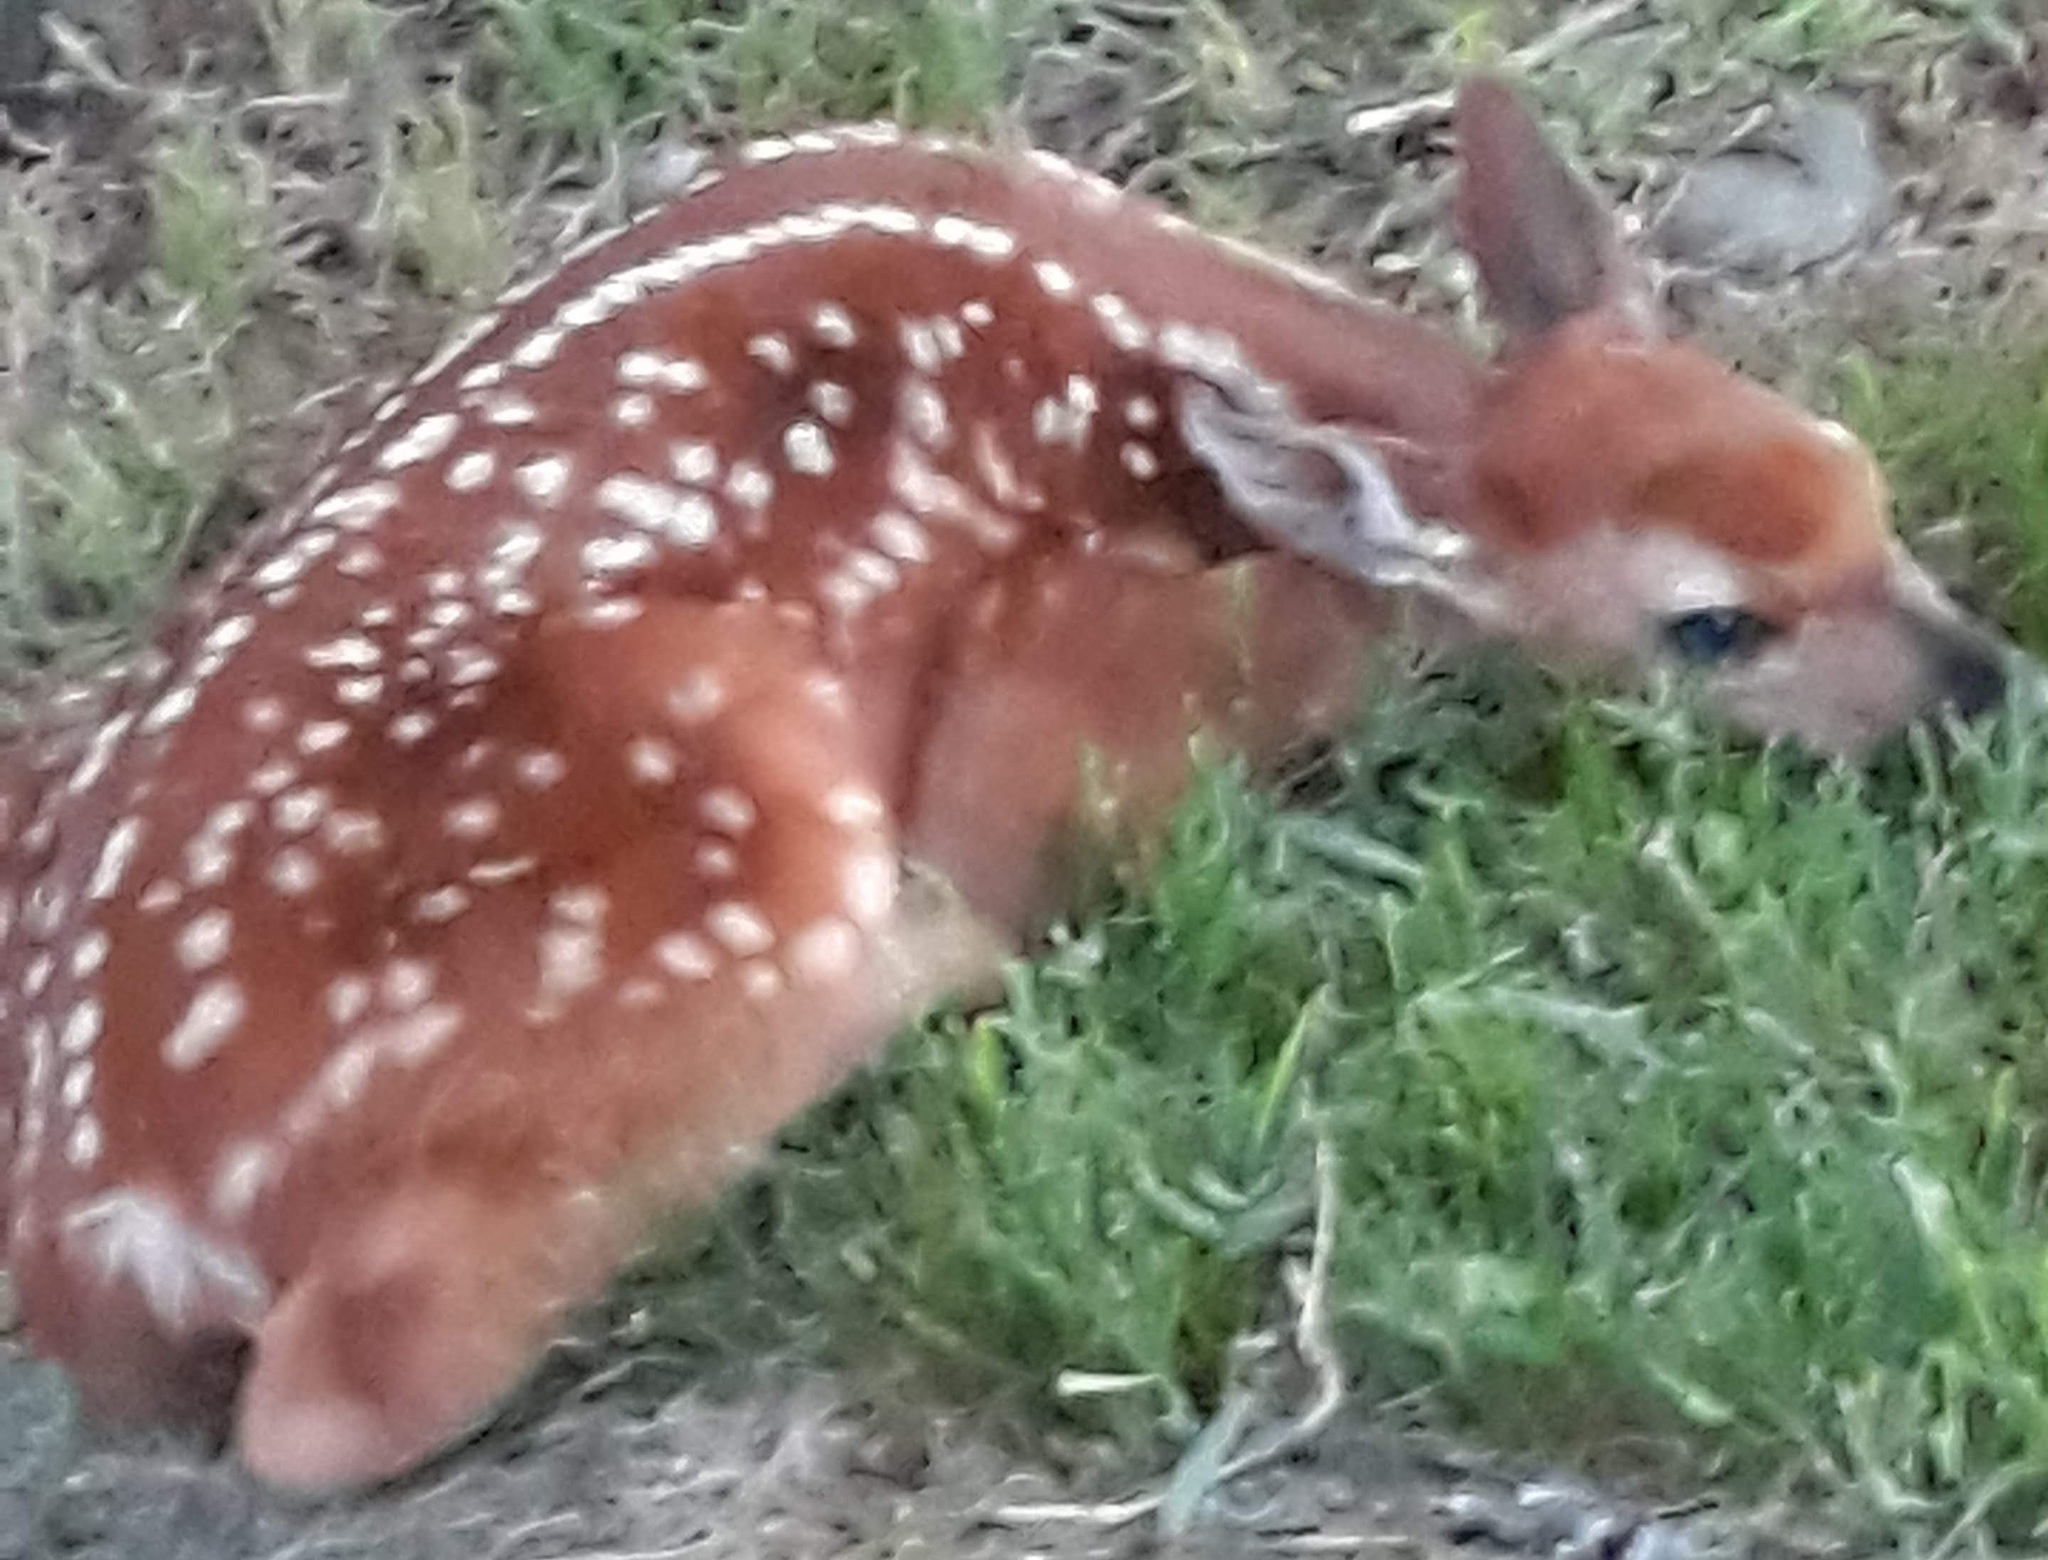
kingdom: Animalia
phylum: Chordata
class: Mammalia
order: Artiodactyla
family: Cervidae
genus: Odocoileus
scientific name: Odocoileus virginianus
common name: White-tailed deer
